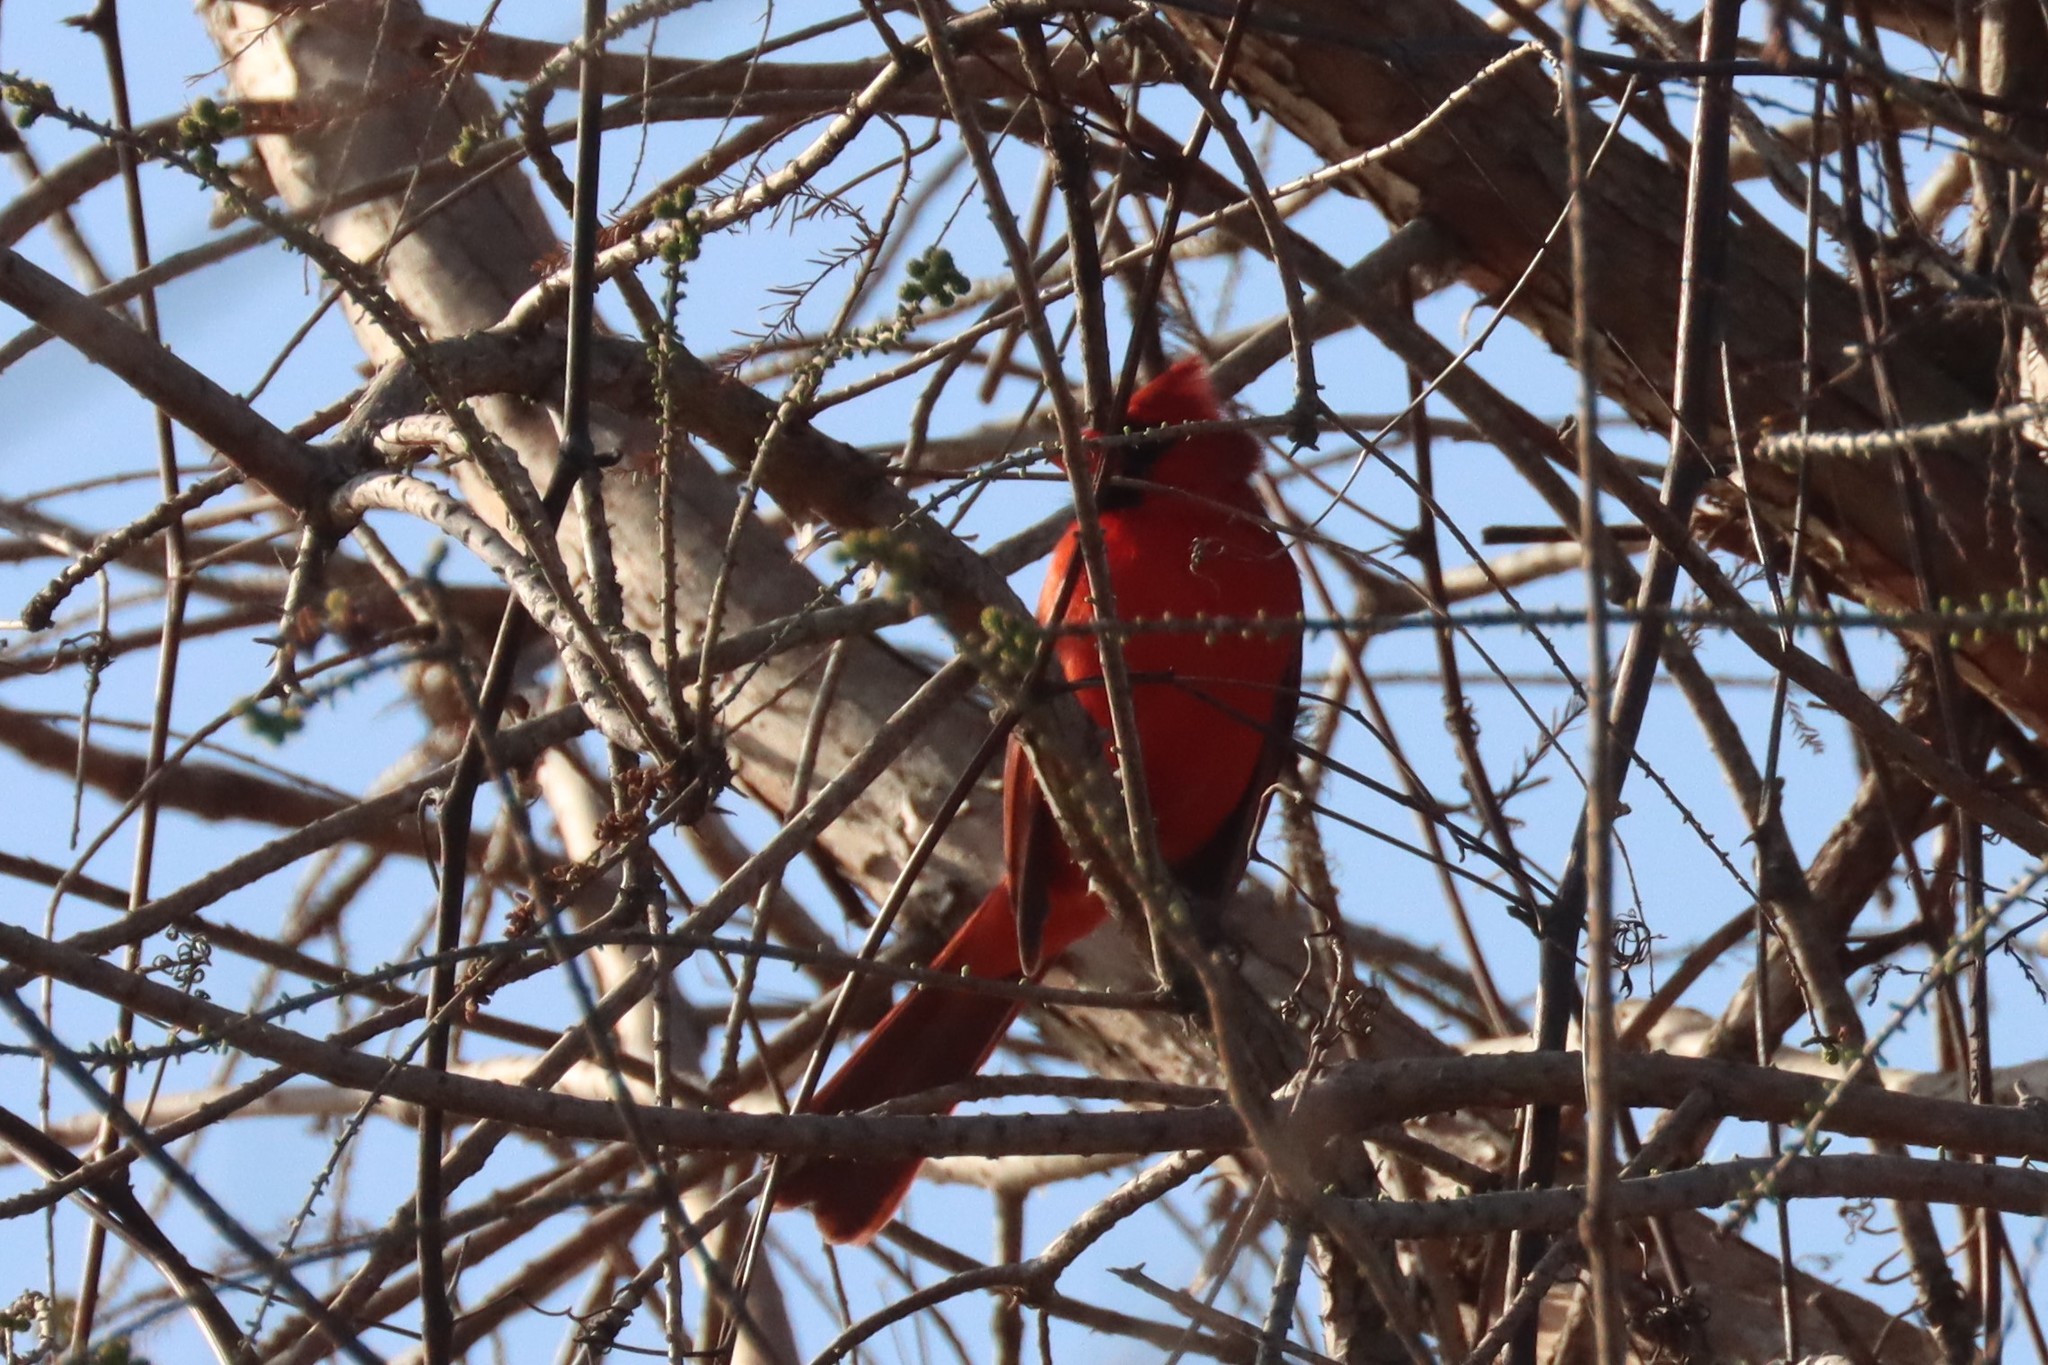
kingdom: Animalia
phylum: Chordata
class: Aves
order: Passeriformes
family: Cardinalidae
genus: Cardinalis
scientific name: Cardinalis cardinalis
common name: Northern cardinal
